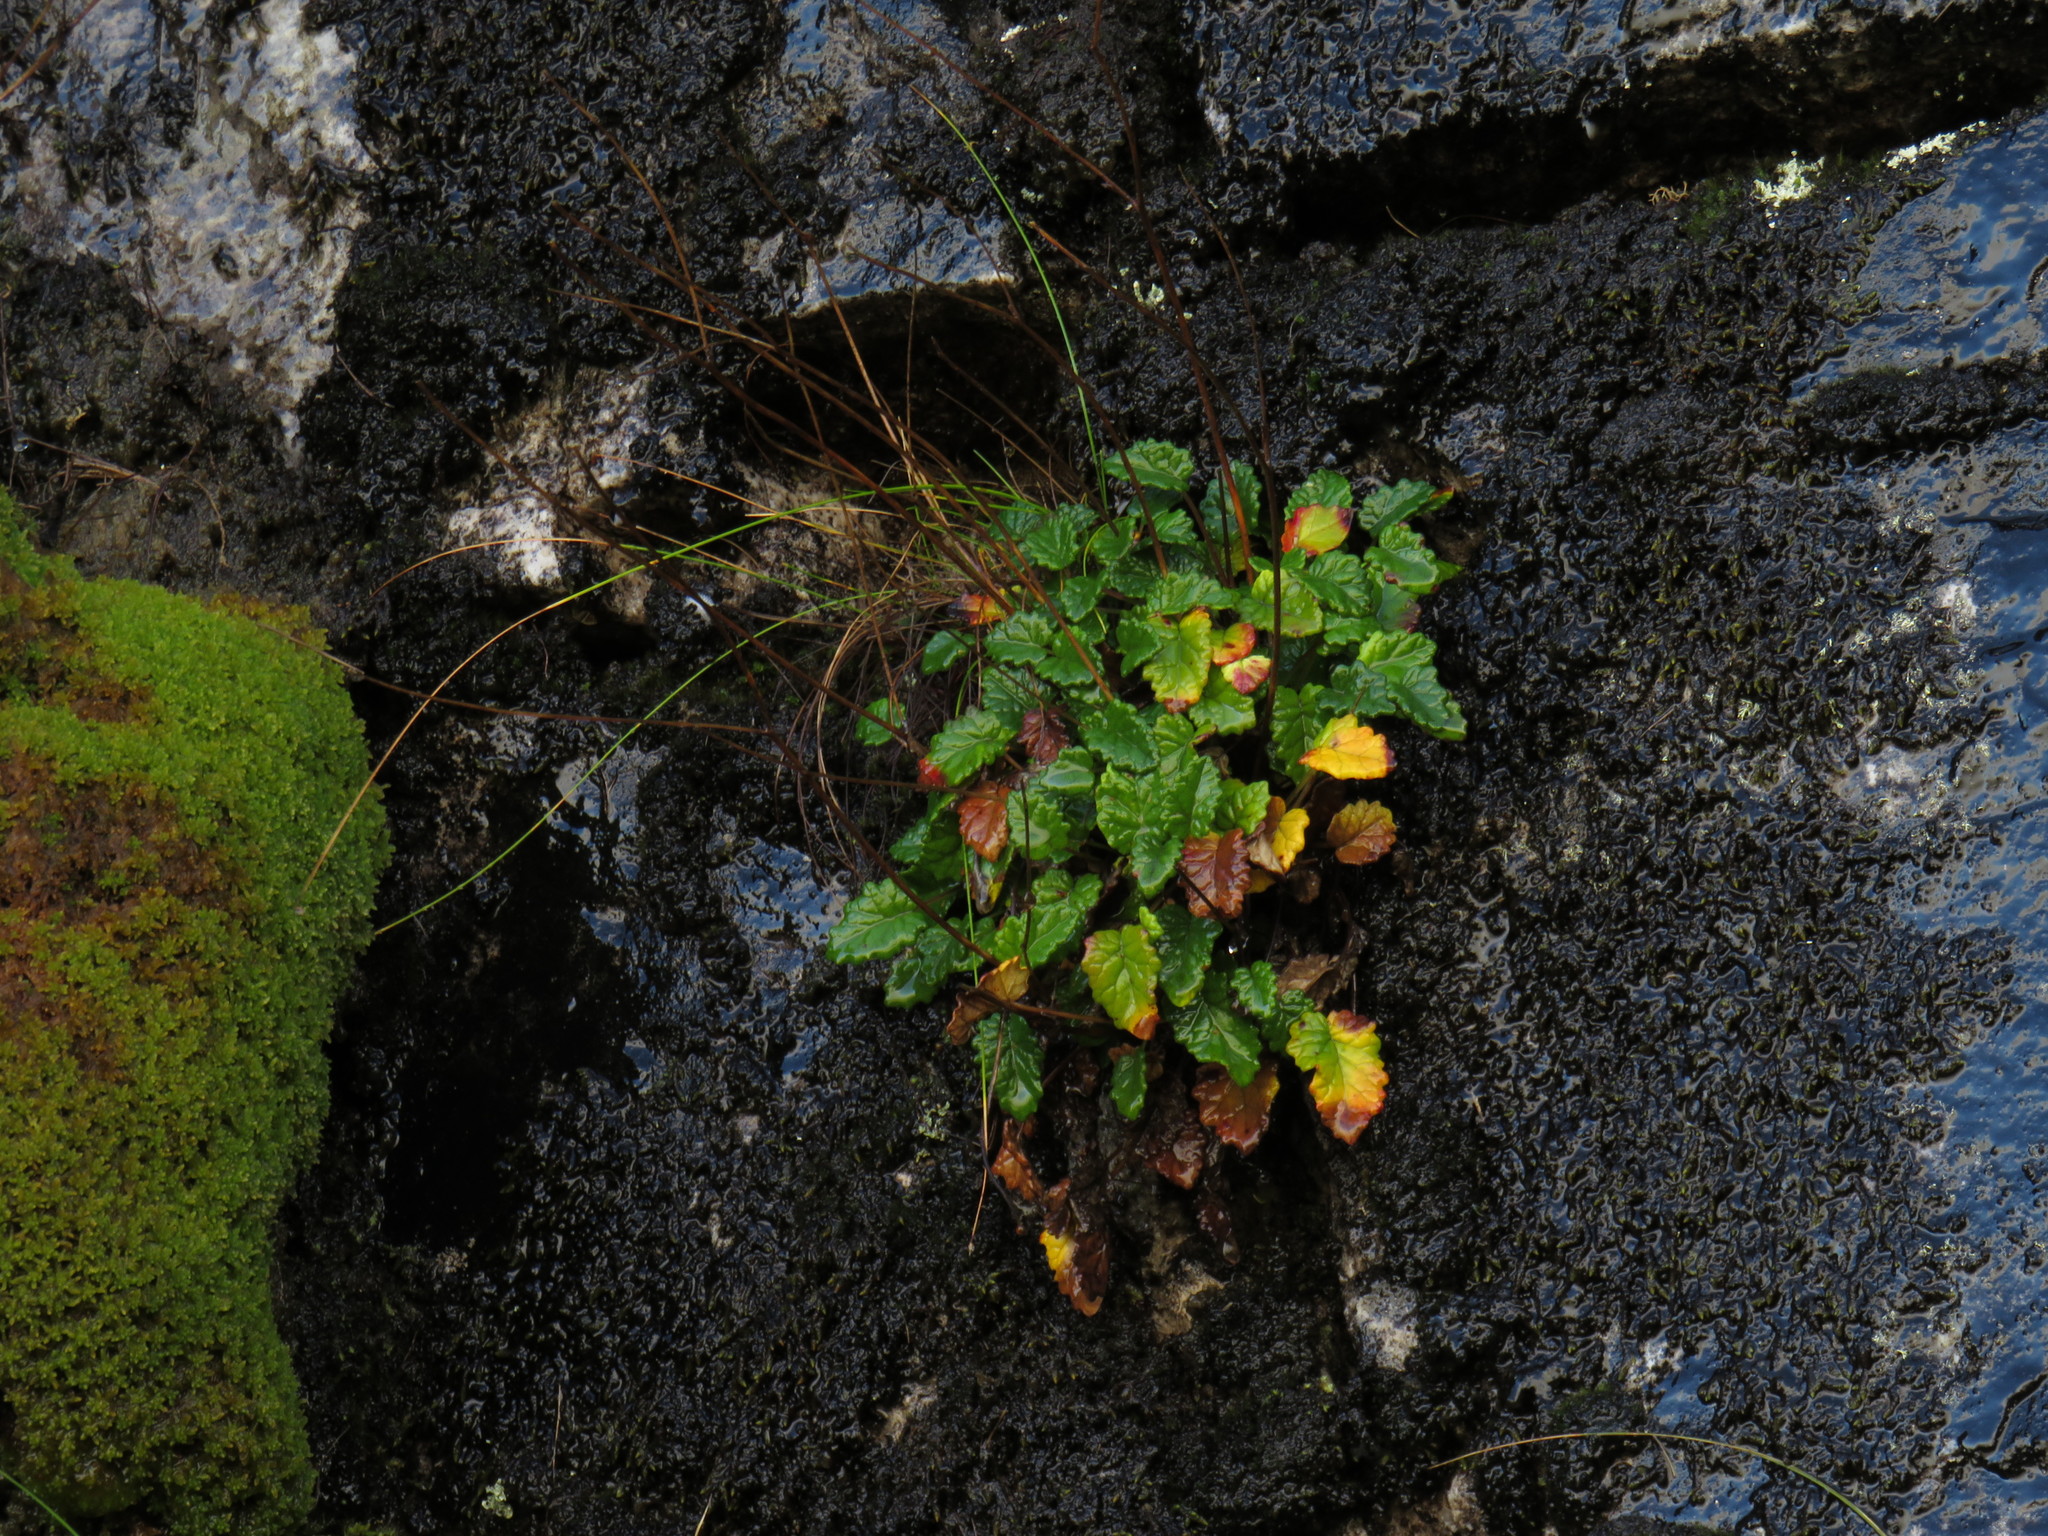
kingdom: Plantae
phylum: Tracheophyta
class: Magnoliopsida
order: Apiales
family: Apiaceae
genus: Hermas
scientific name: Hermas capitata
